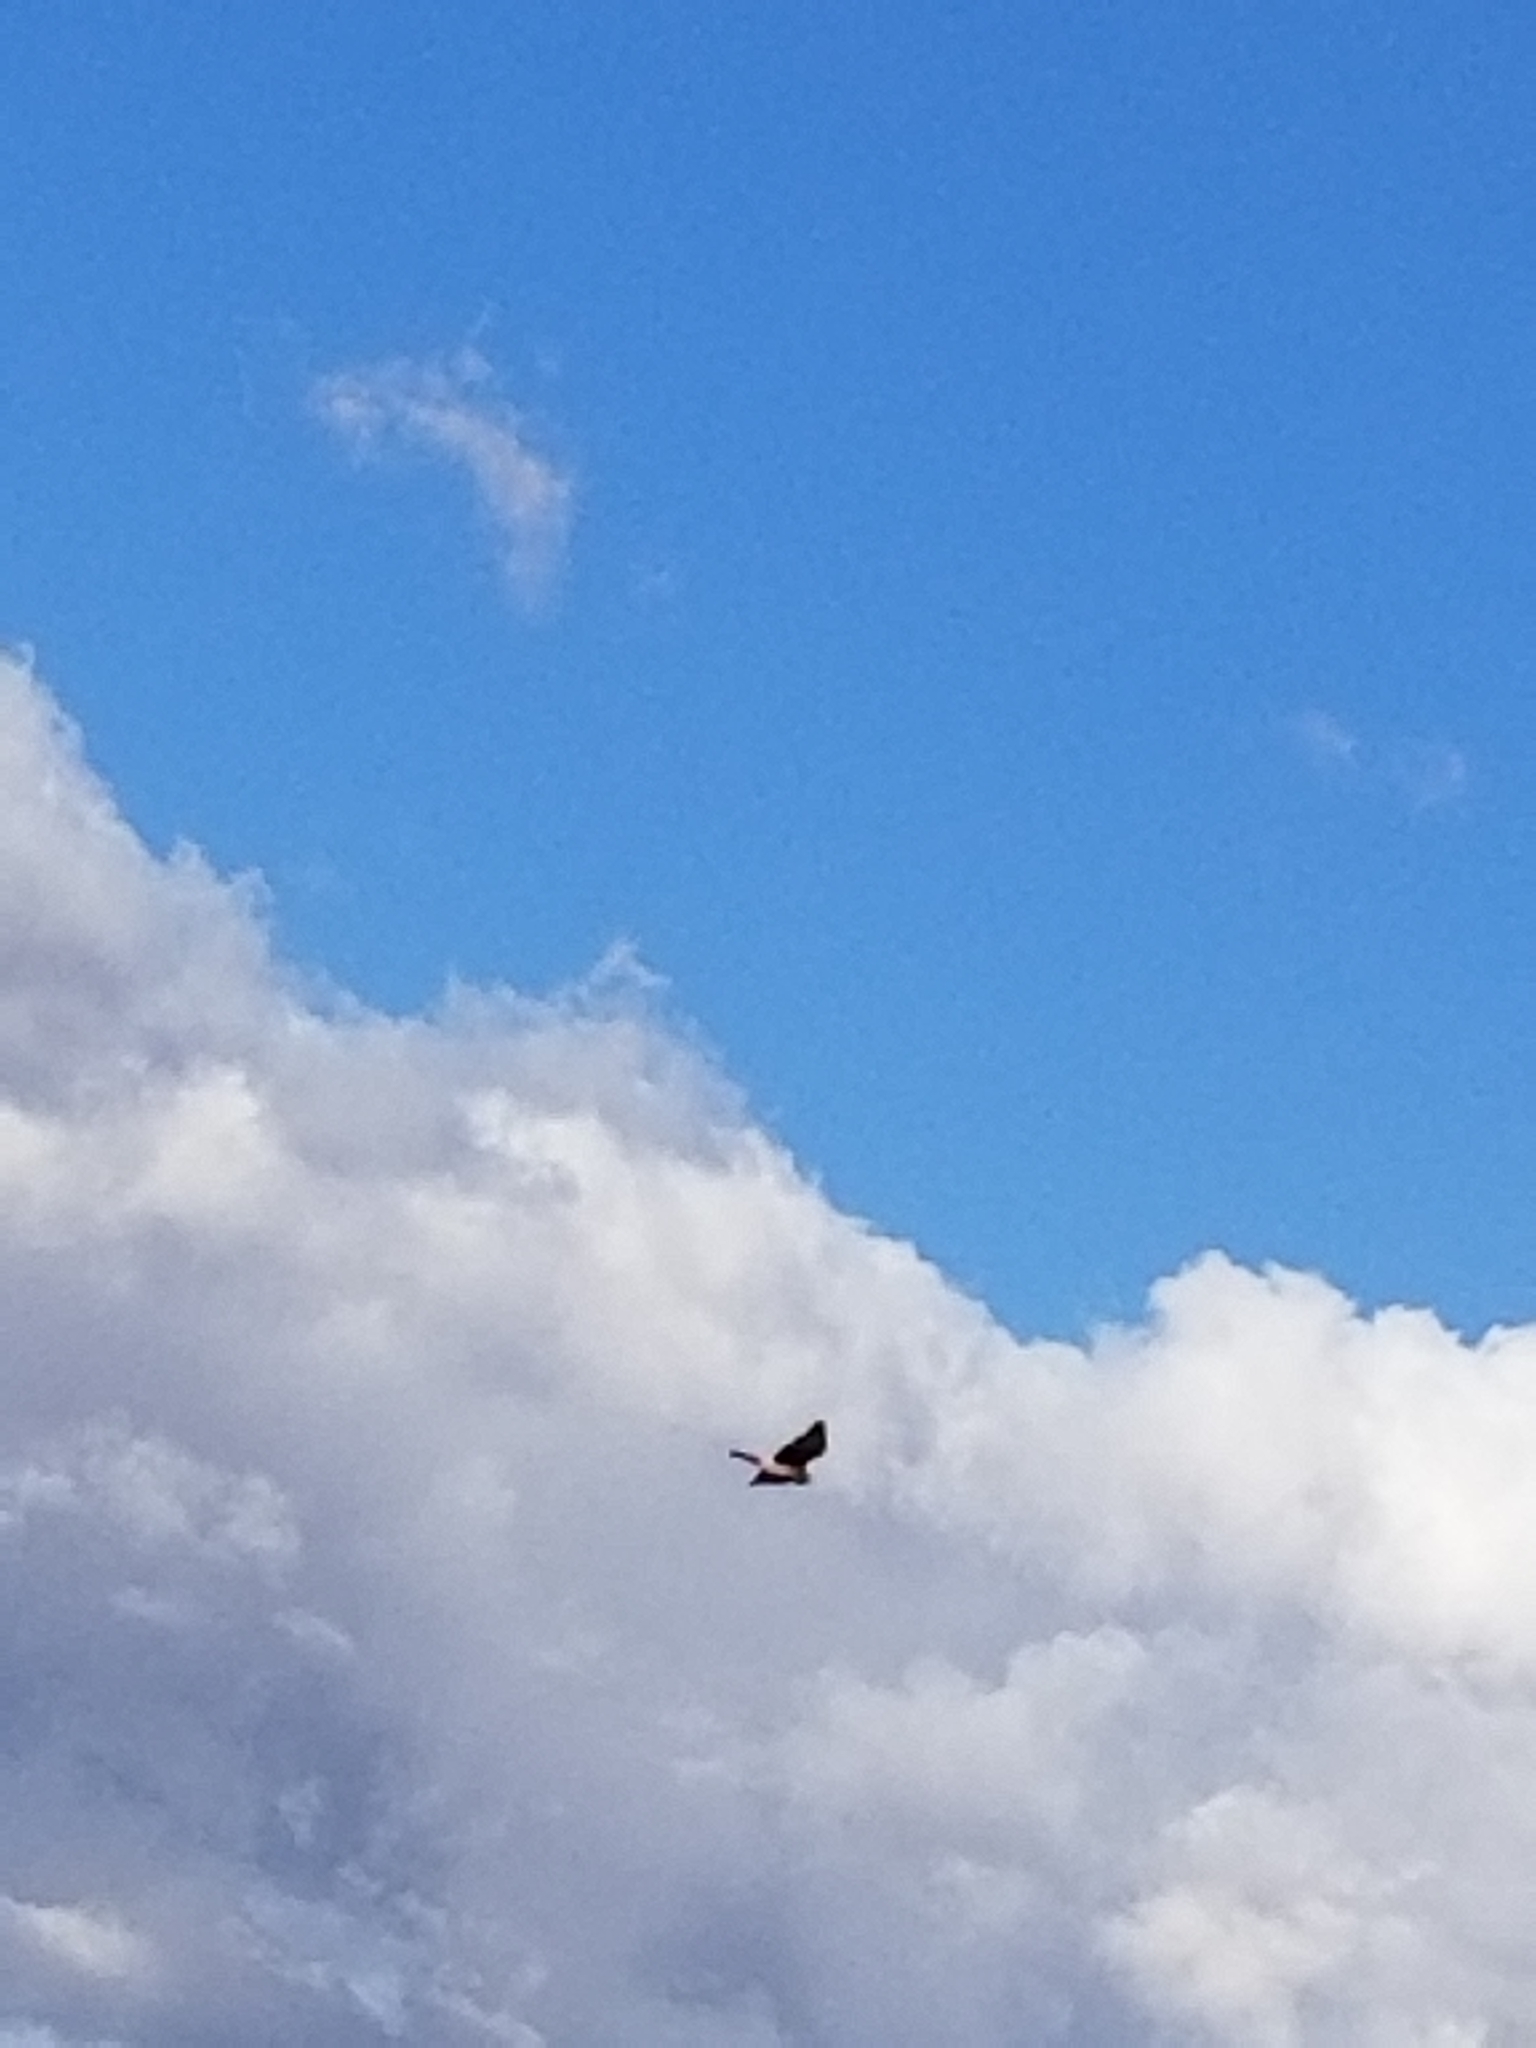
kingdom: Animalia
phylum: Chordata
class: Aves
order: Accipitriformes
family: Accipitridae
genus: Circus
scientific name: Circus cyaneus
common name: Hen harrier
